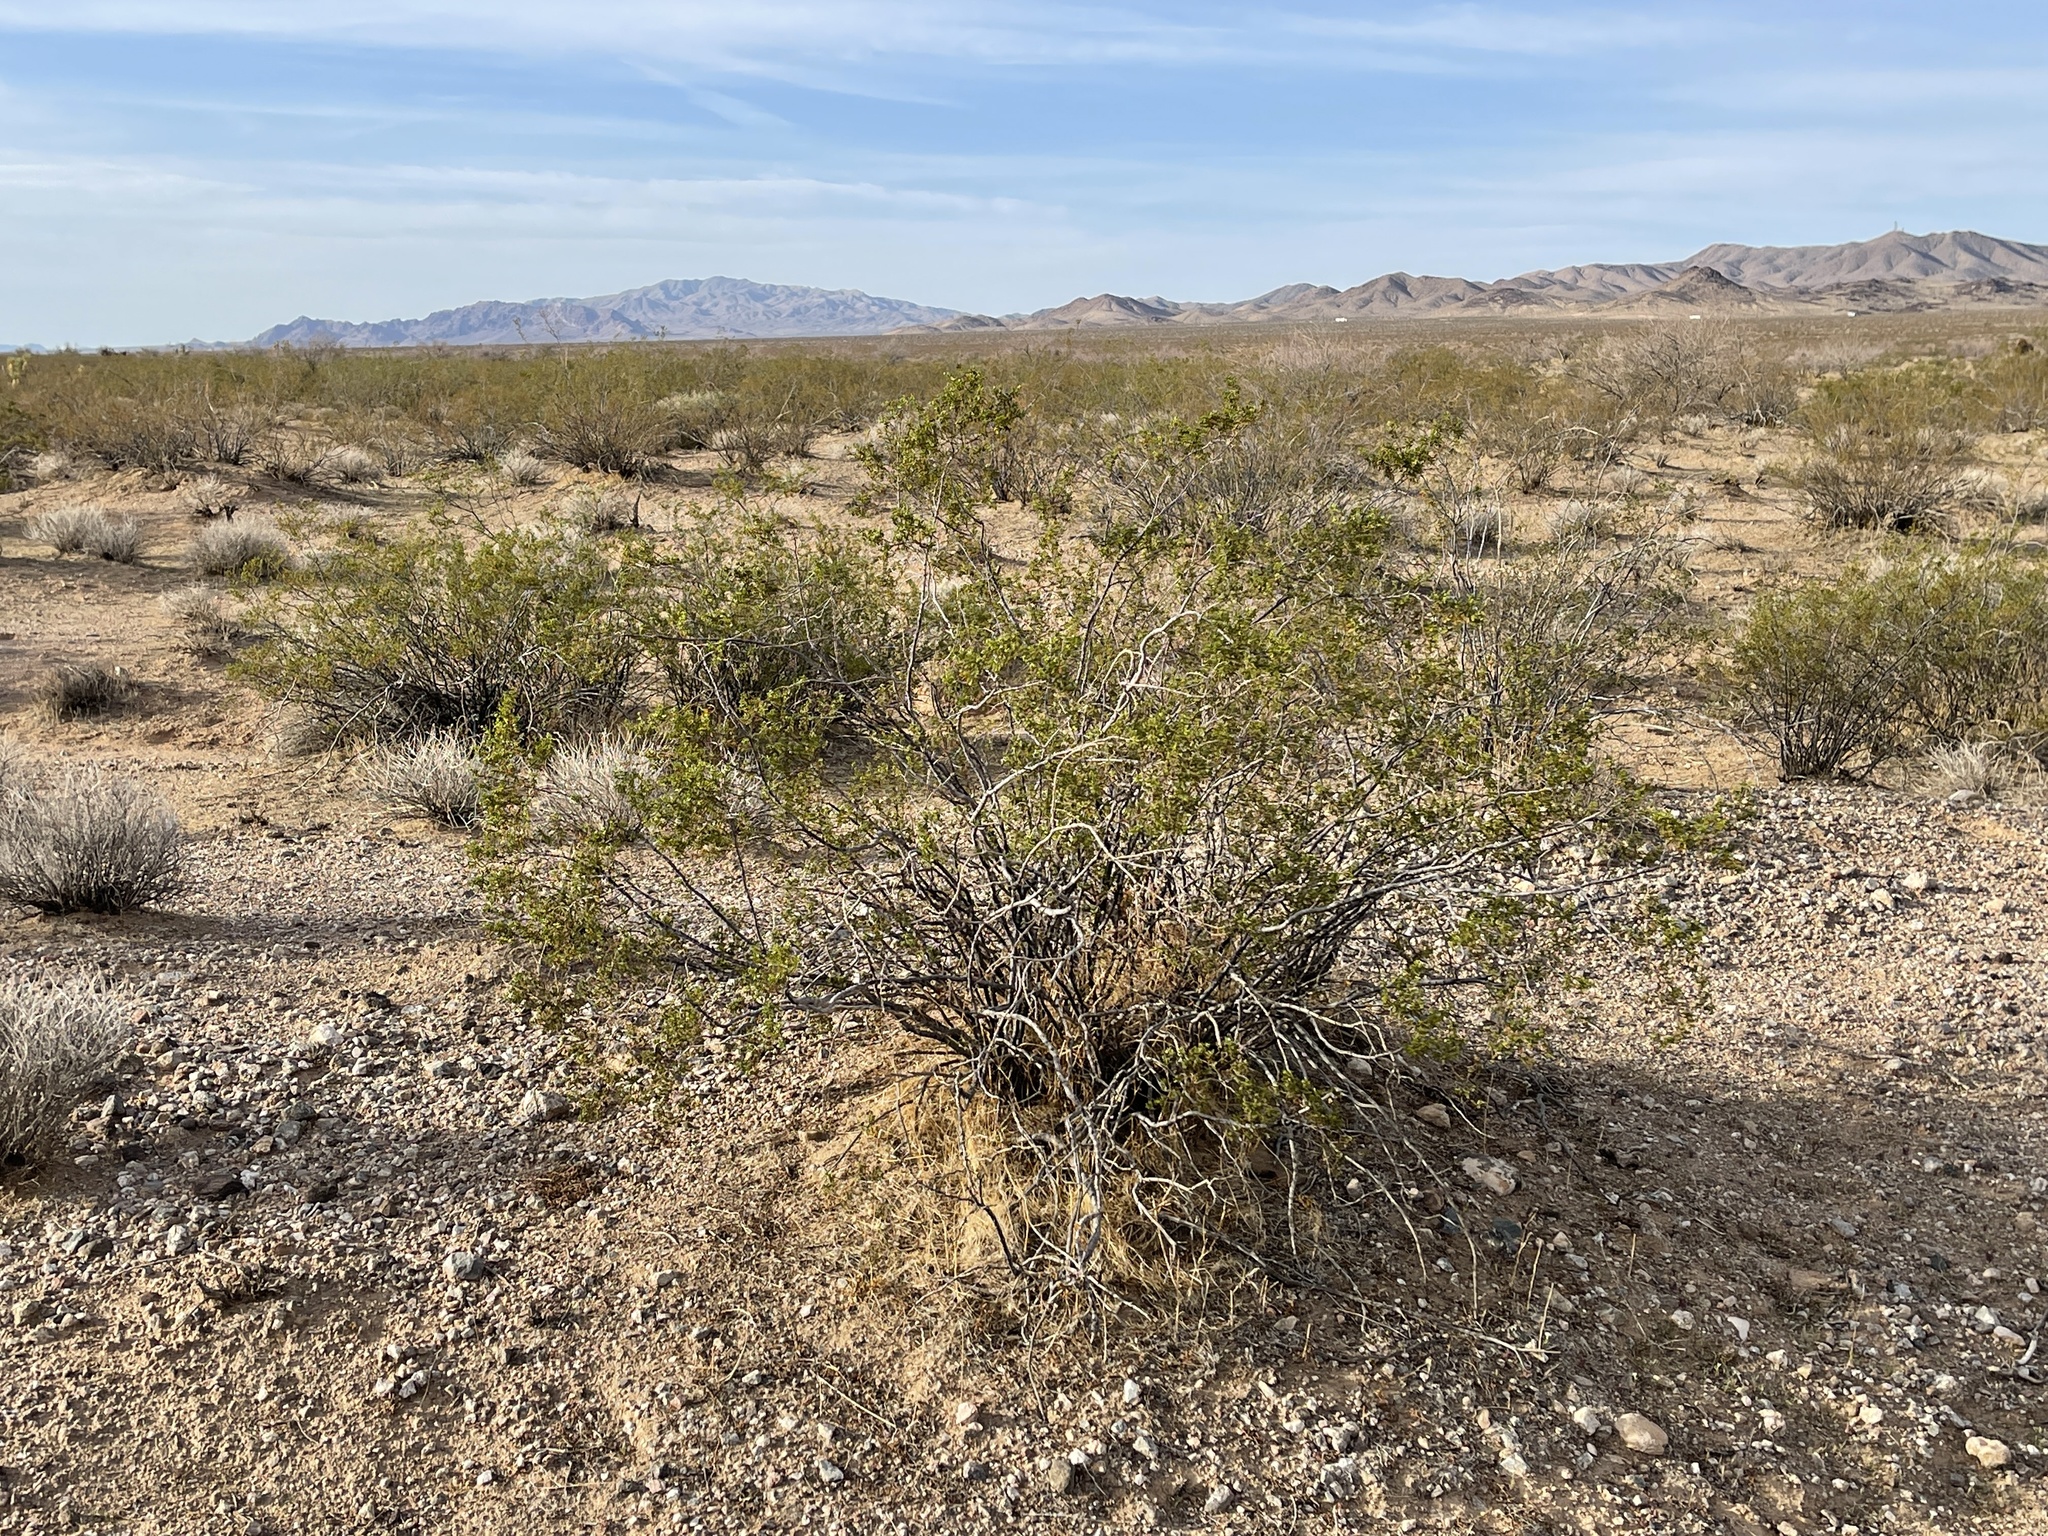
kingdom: Plantae
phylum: Tracheophyta
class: Magnoliopsida
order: Zygophyllales
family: Zygophyllaceae
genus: Larrea
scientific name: Larrea tridentata
